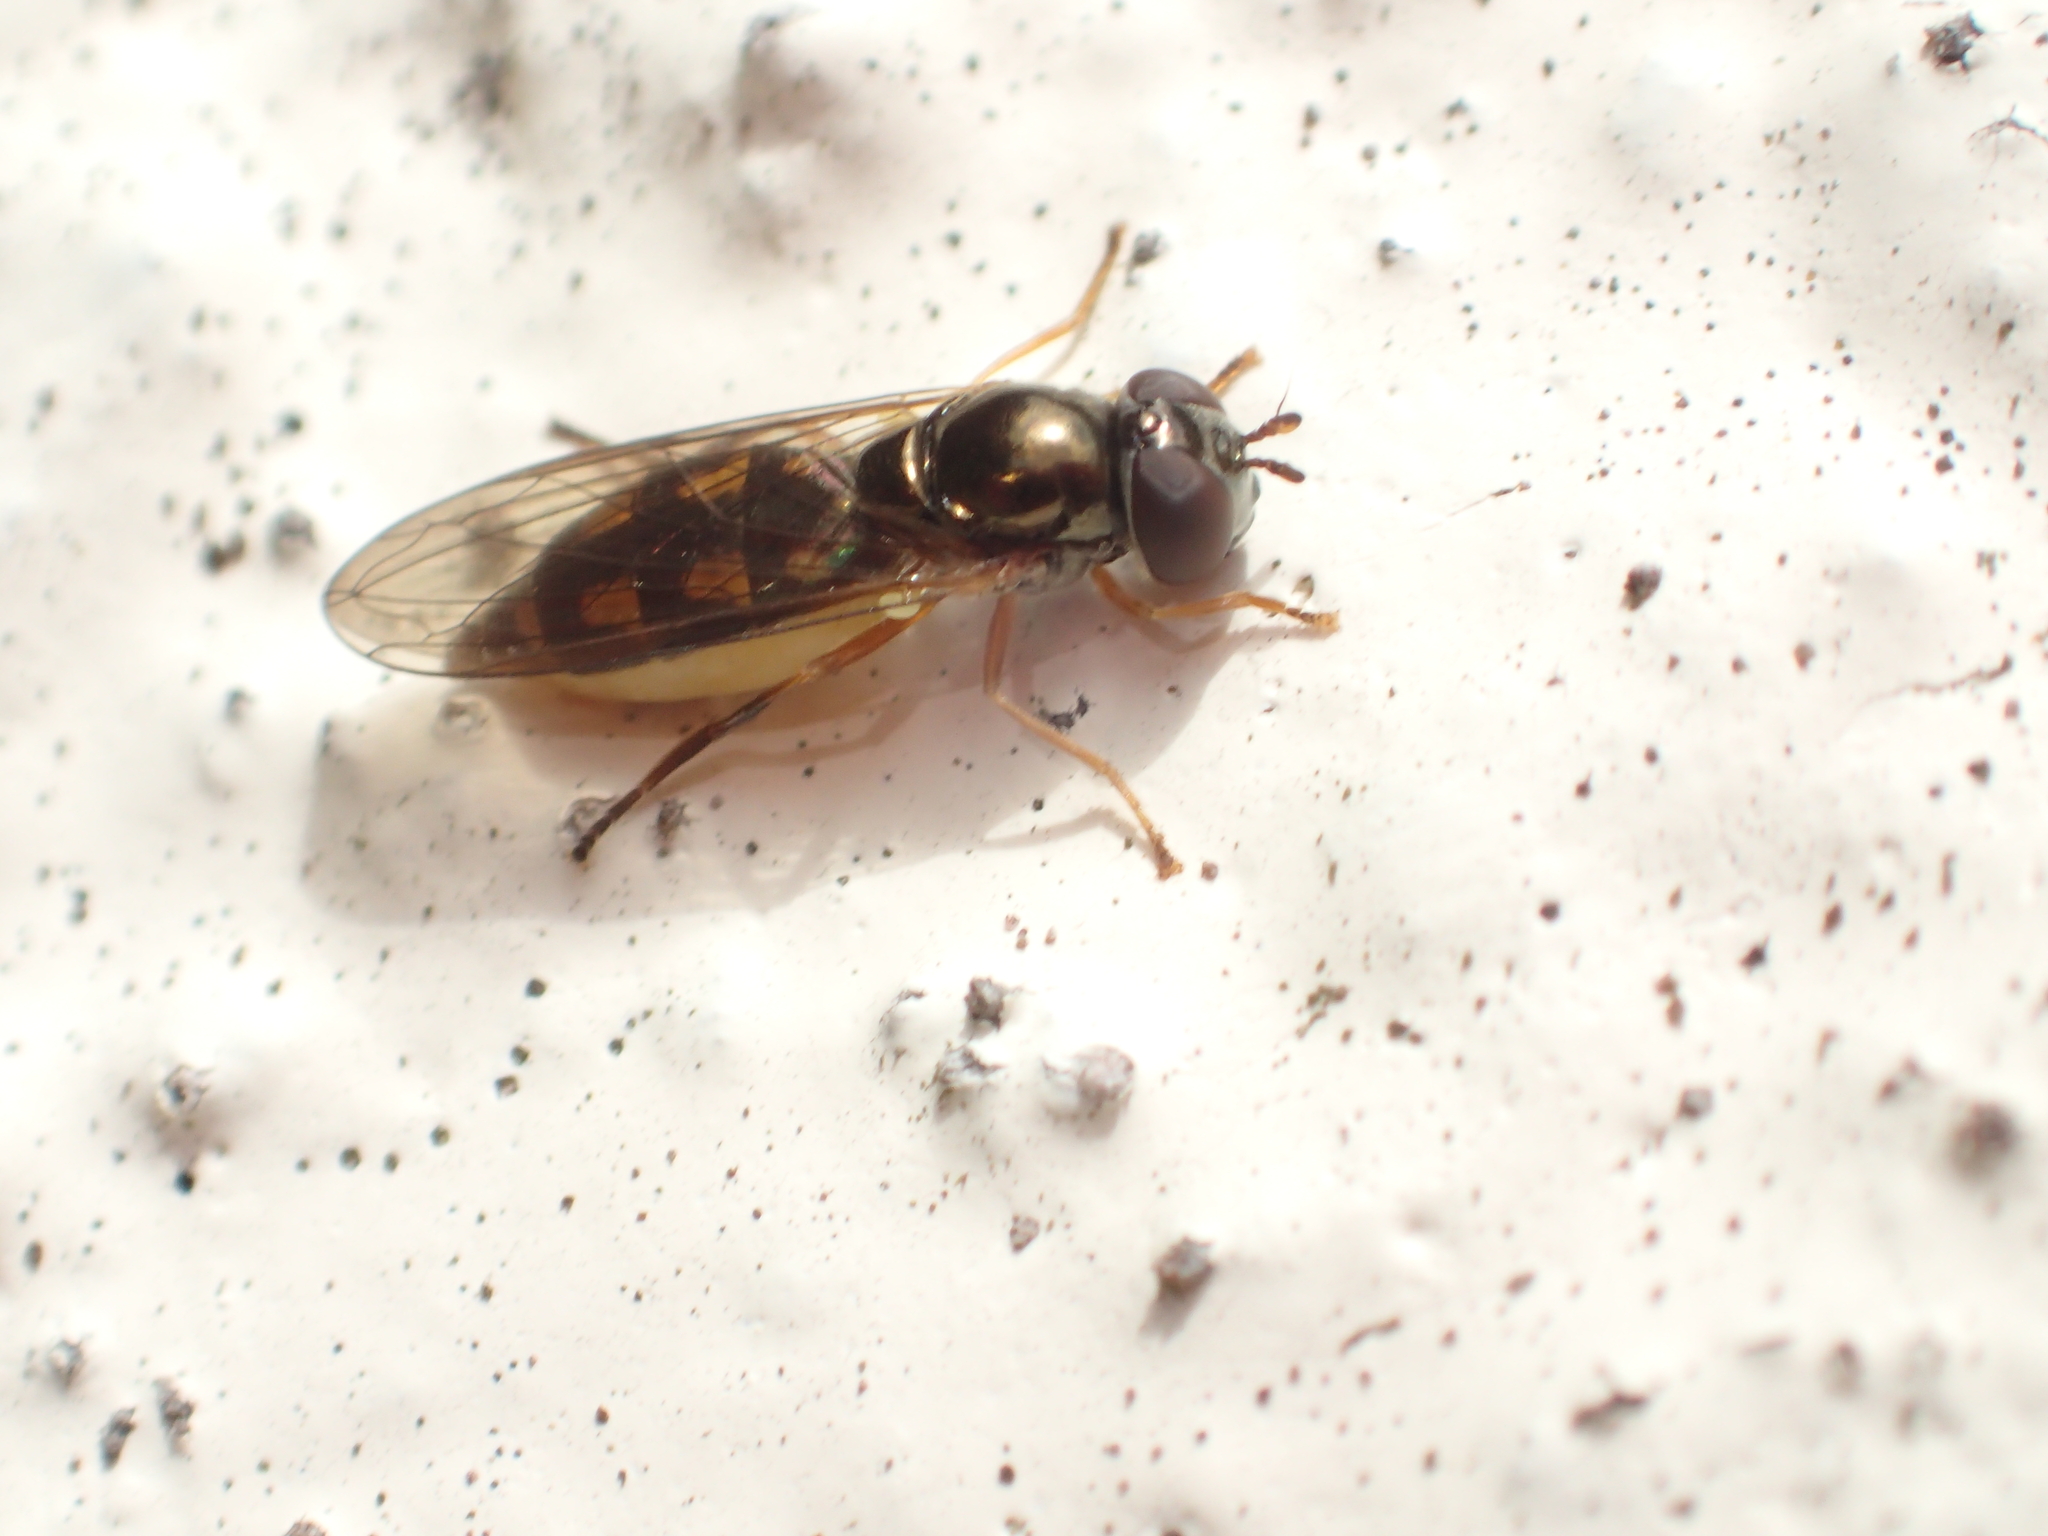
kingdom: Animalia
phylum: Arthropoda
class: Insecta
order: Diptera
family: Syrphidae
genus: Melanostoma
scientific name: Melanostoma fasciatum
